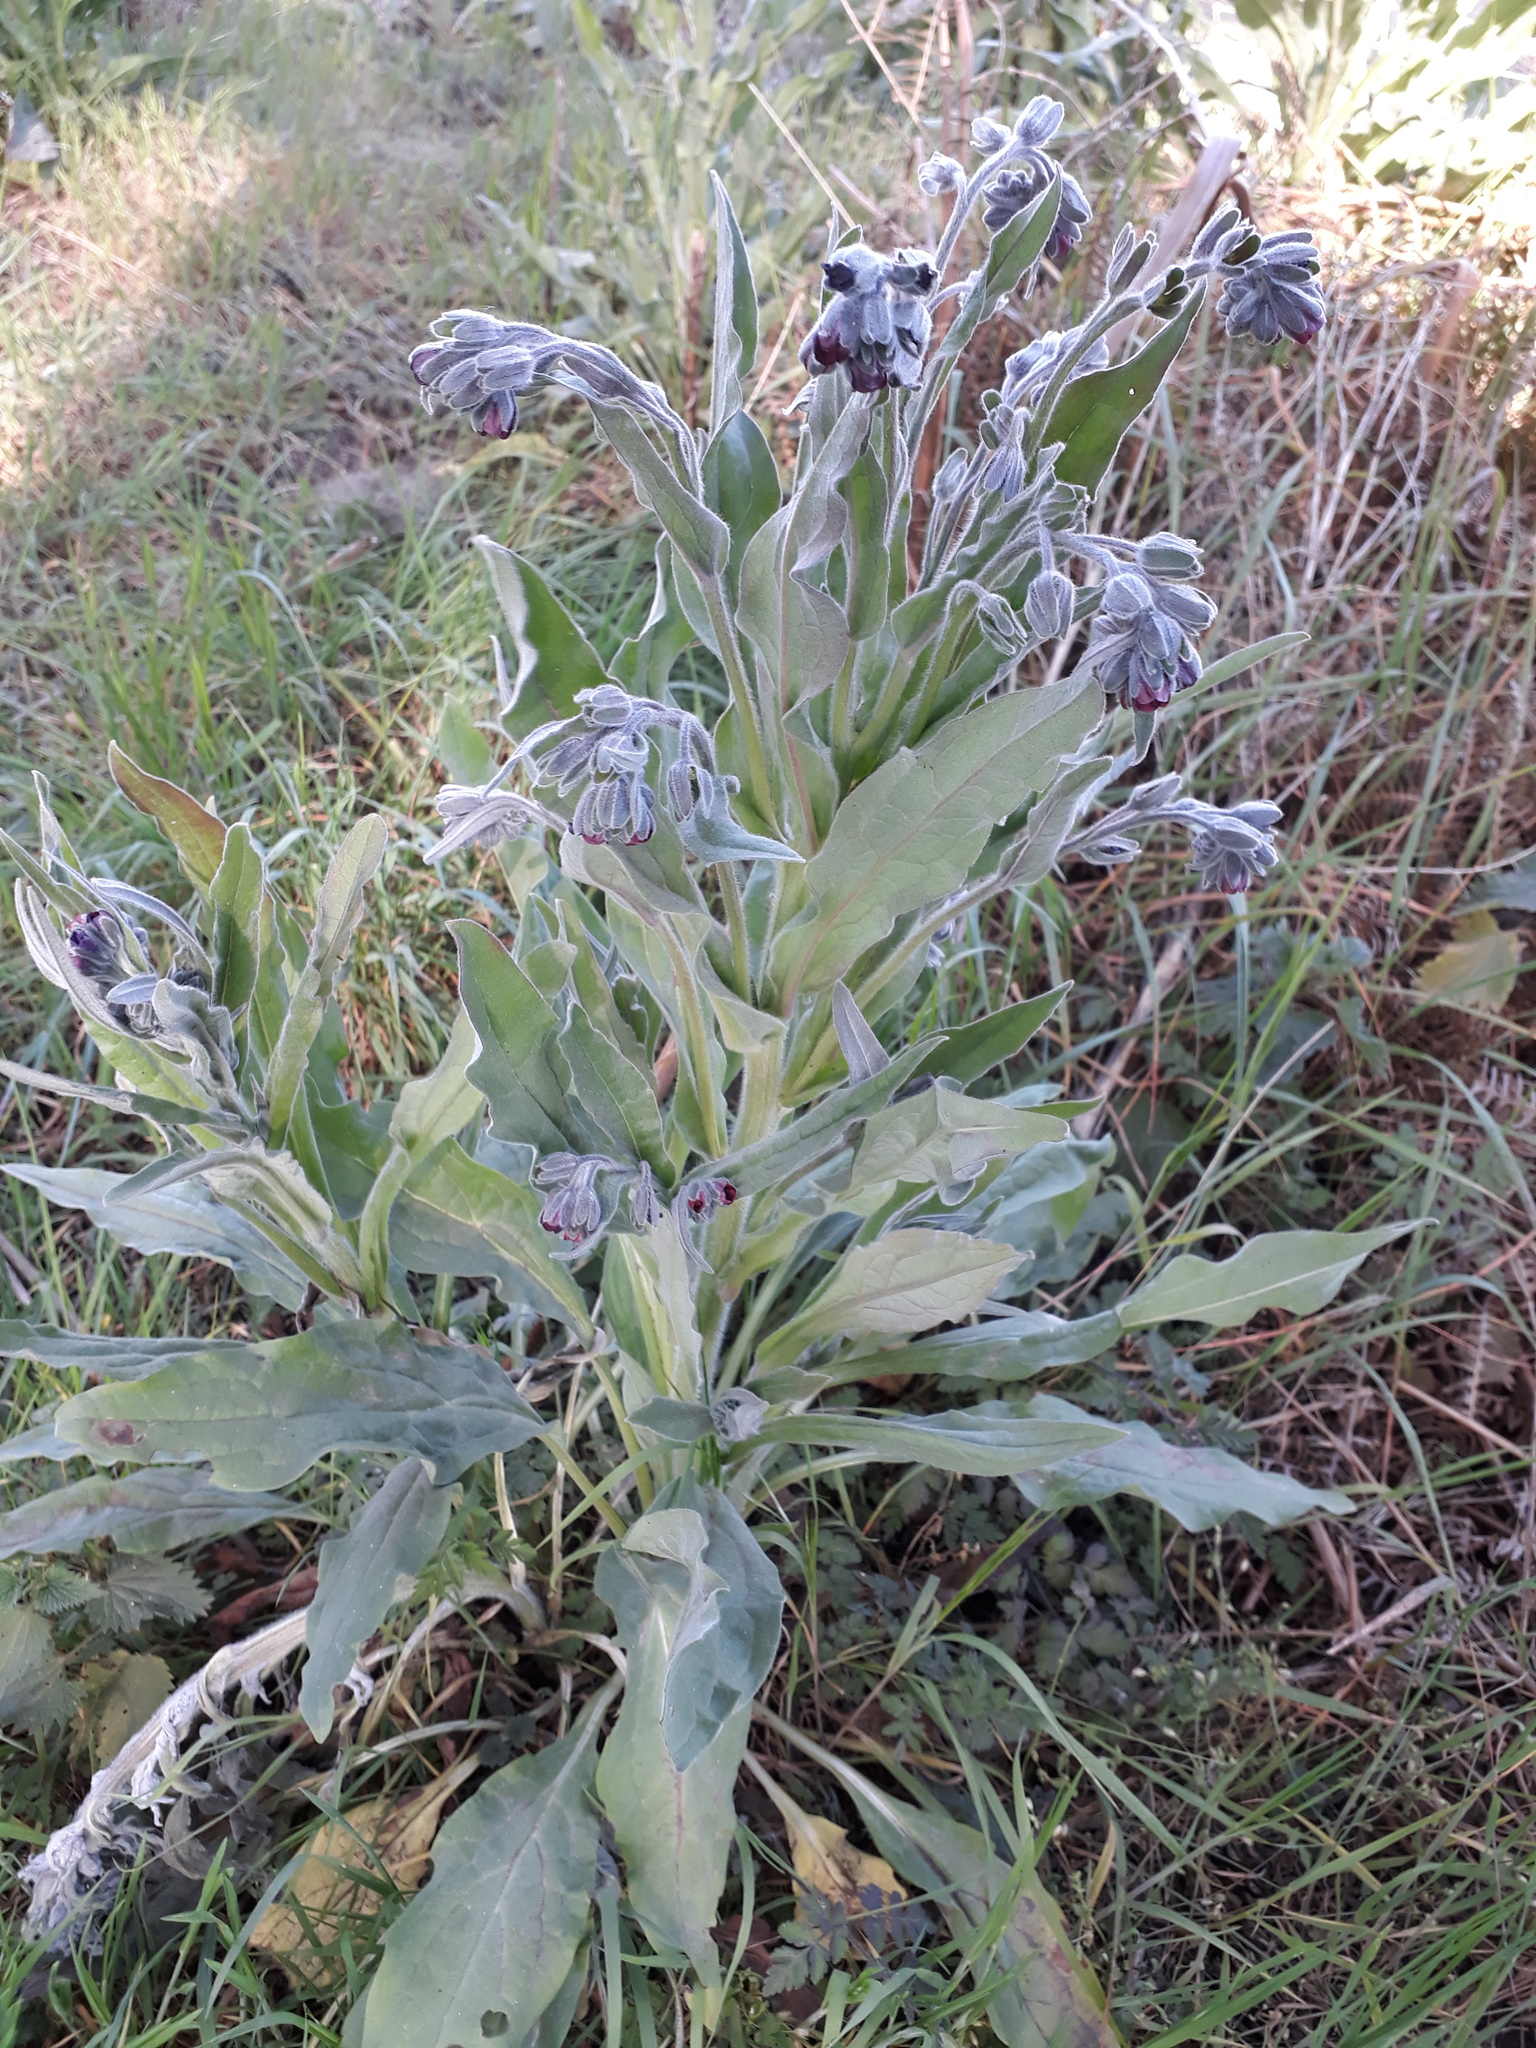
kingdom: Plantae
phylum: Tracheophyta
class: Magnoliopsida
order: Boraginales
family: Boraginaceae
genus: Cynoglossum
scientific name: Cynoglossum officinale
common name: Hound's-tongue
